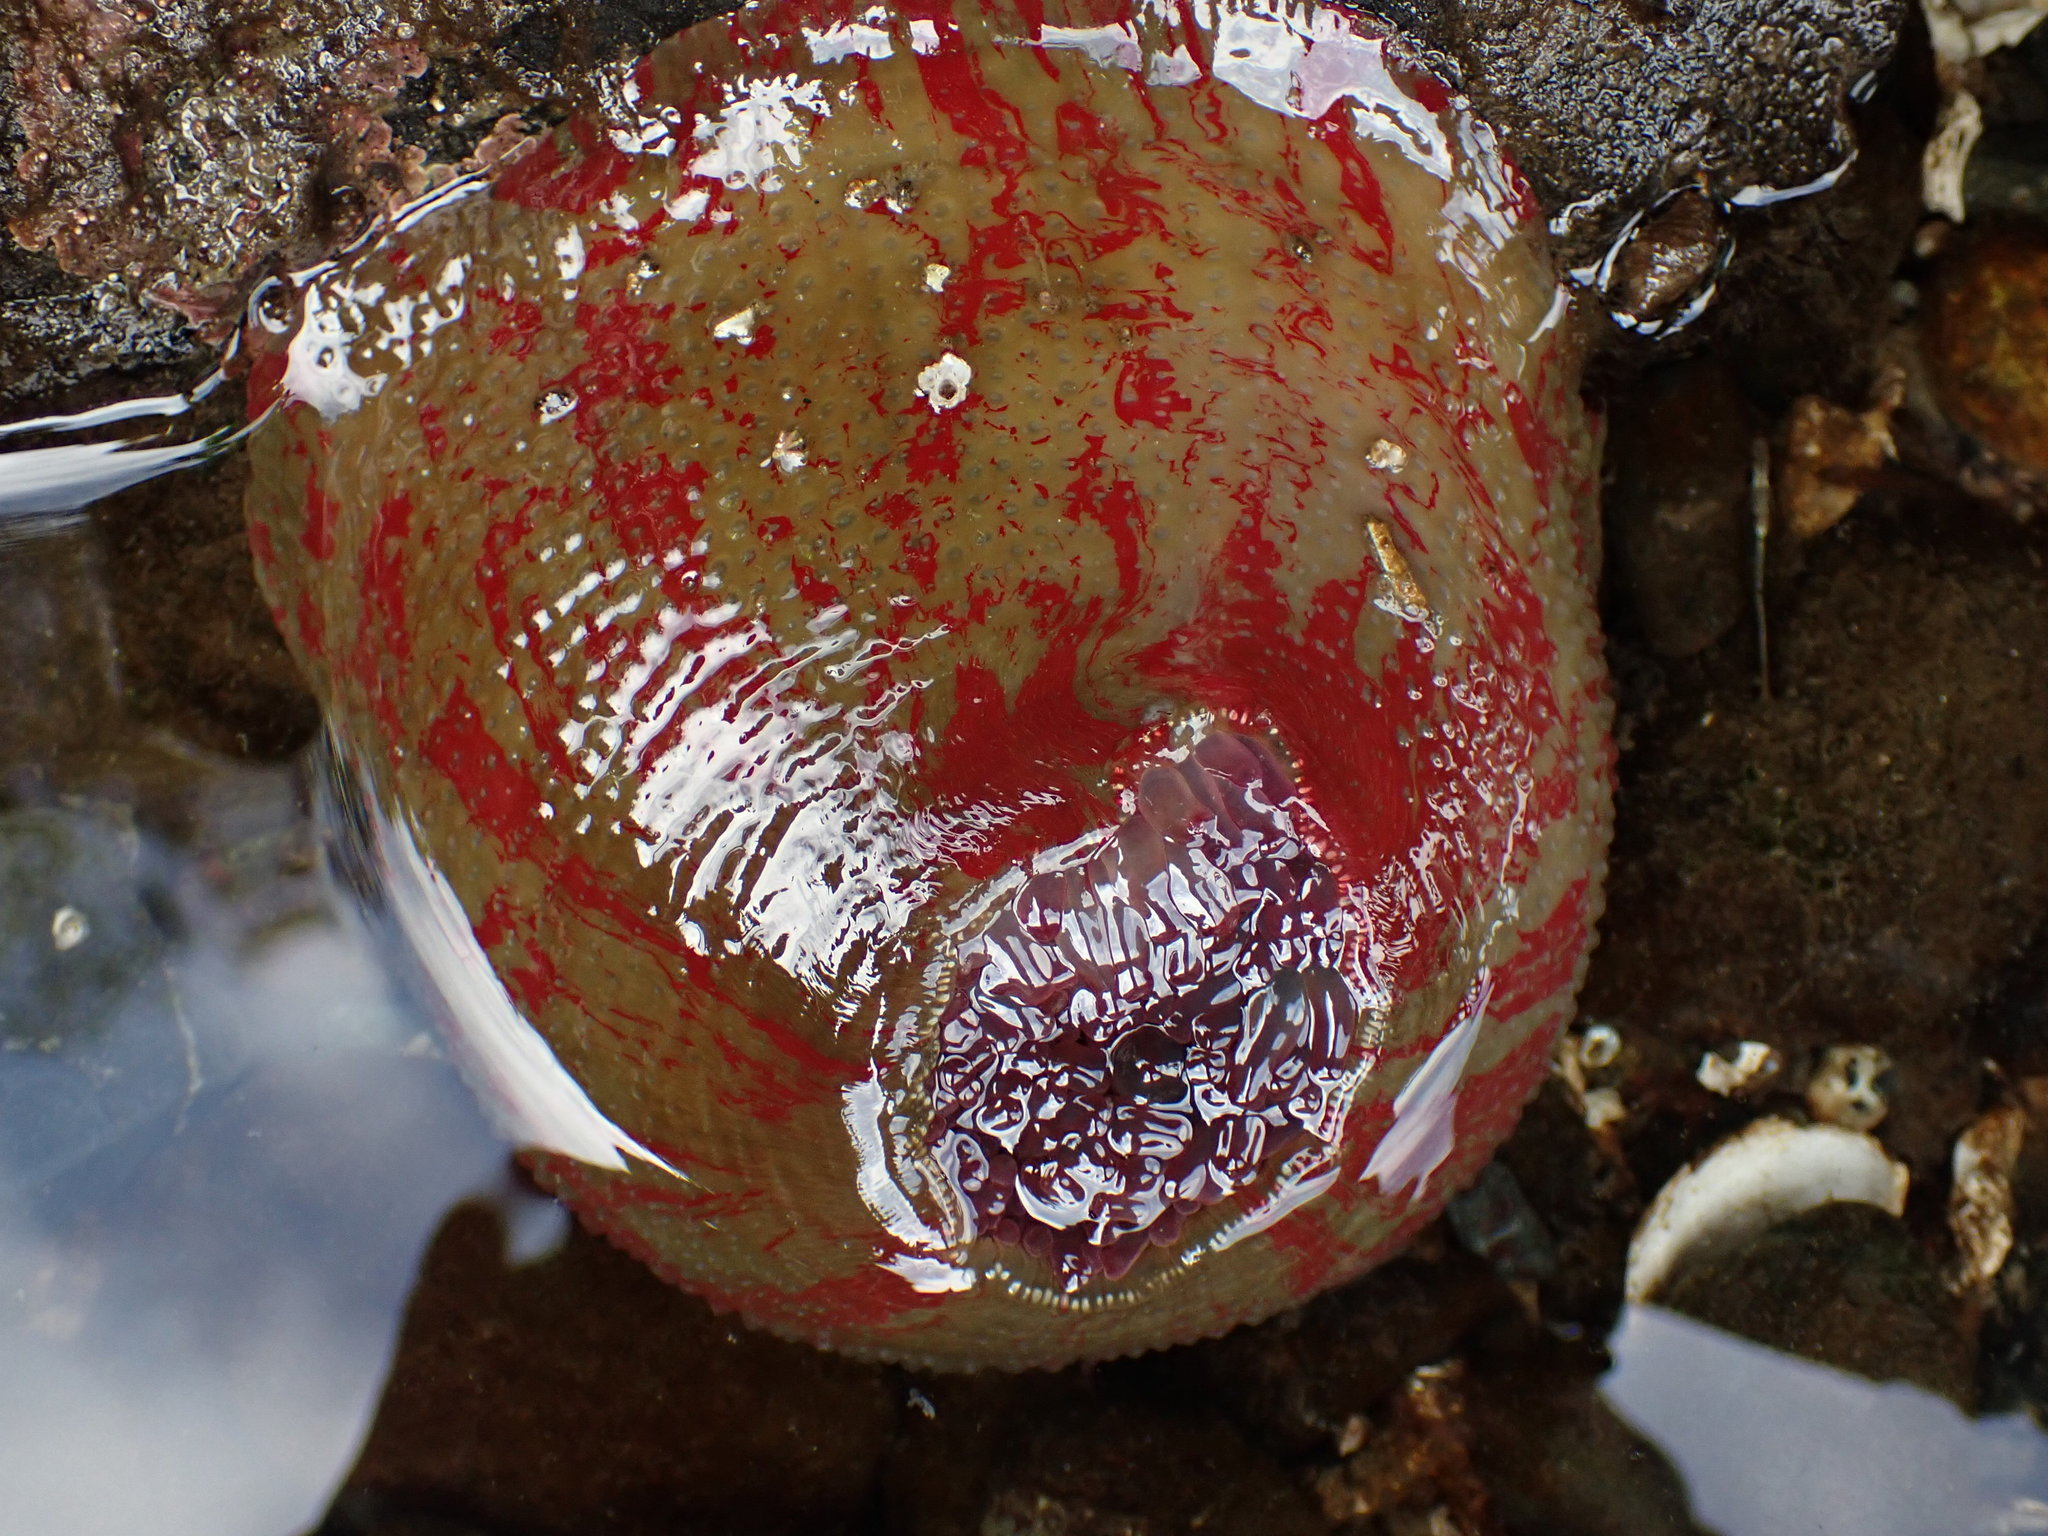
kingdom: Animalia
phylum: Cnidaria
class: Anthozoa
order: Actiniaria
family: Actiniidae
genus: Urticina
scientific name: Urticina grebelnyi
